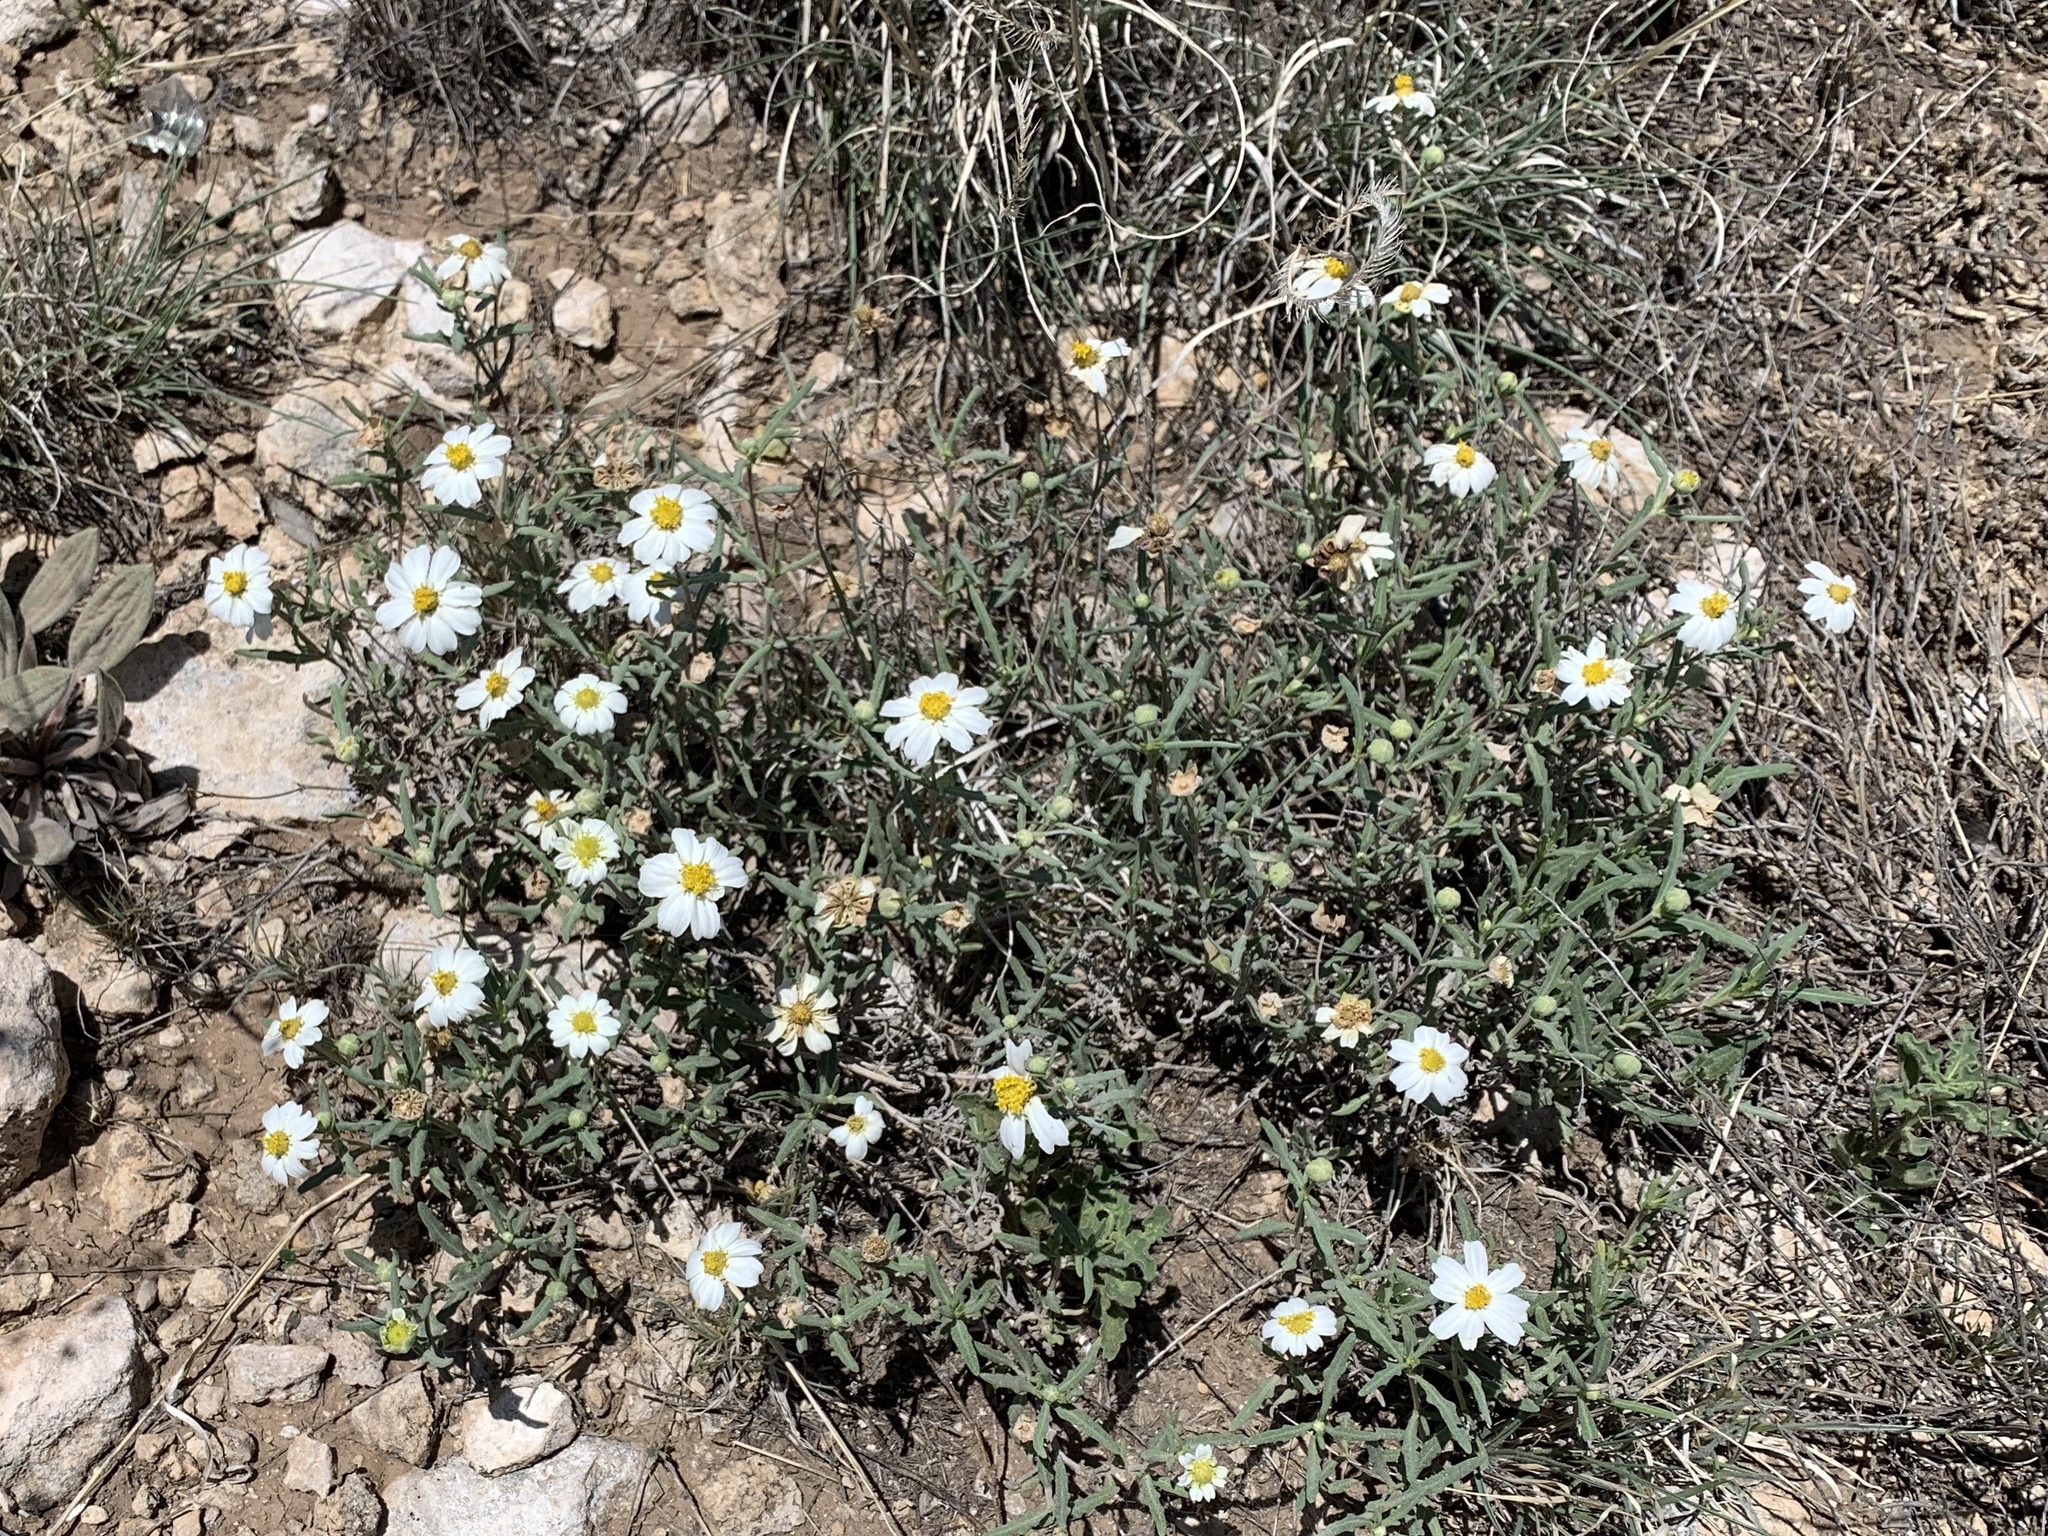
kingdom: Plantae
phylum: Tracheophyta
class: Magnoliopsida
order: Asterales
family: Asteraceae
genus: Melampodium
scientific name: Melampodium leucanthum
